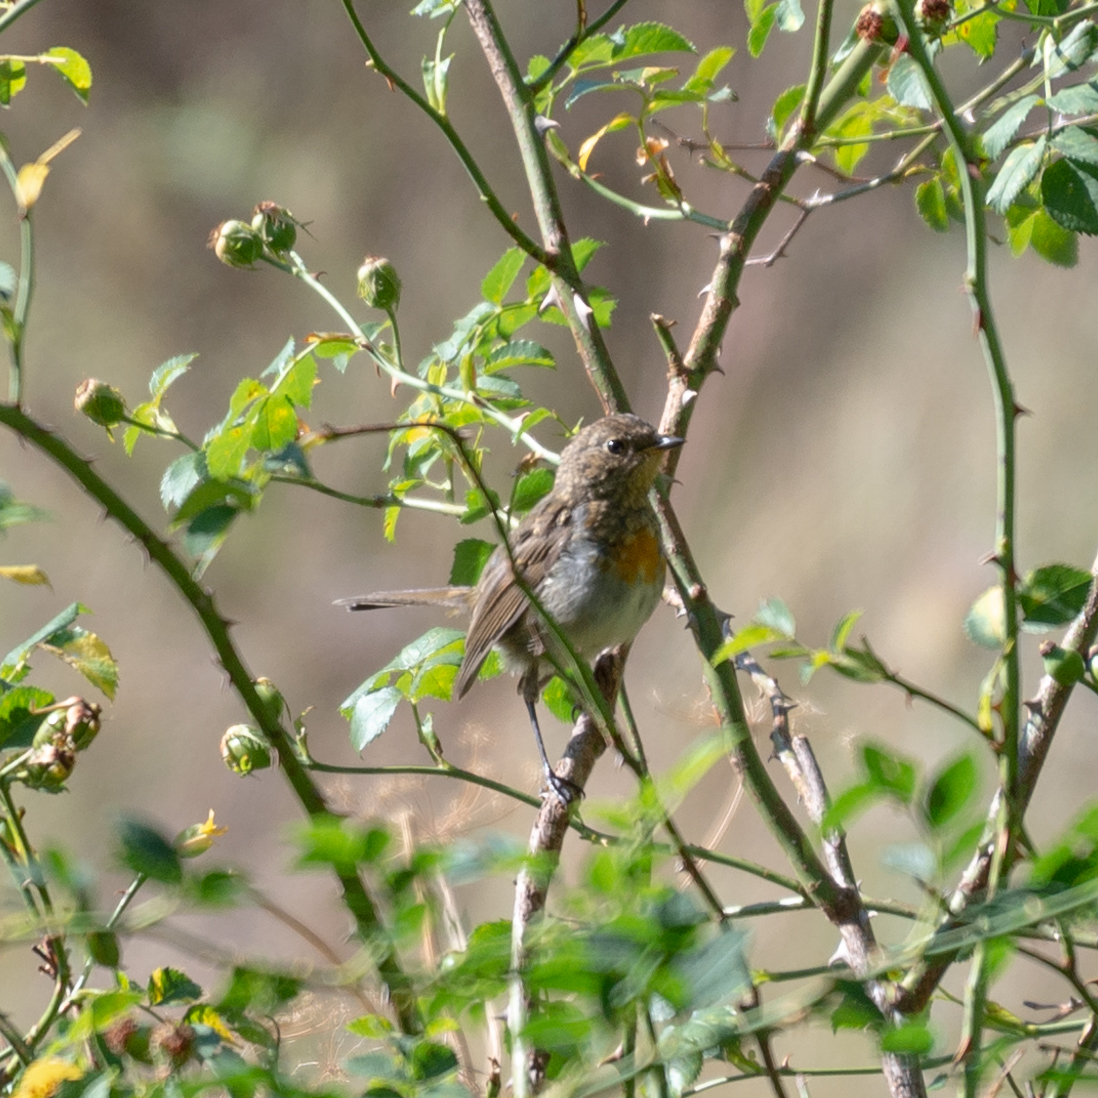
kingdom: Animalia
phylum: Chordata
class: Aves
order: Passeriformes
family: Muscicapidae
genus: Erithacus
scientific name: Erithacus rubecula
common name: European robin
